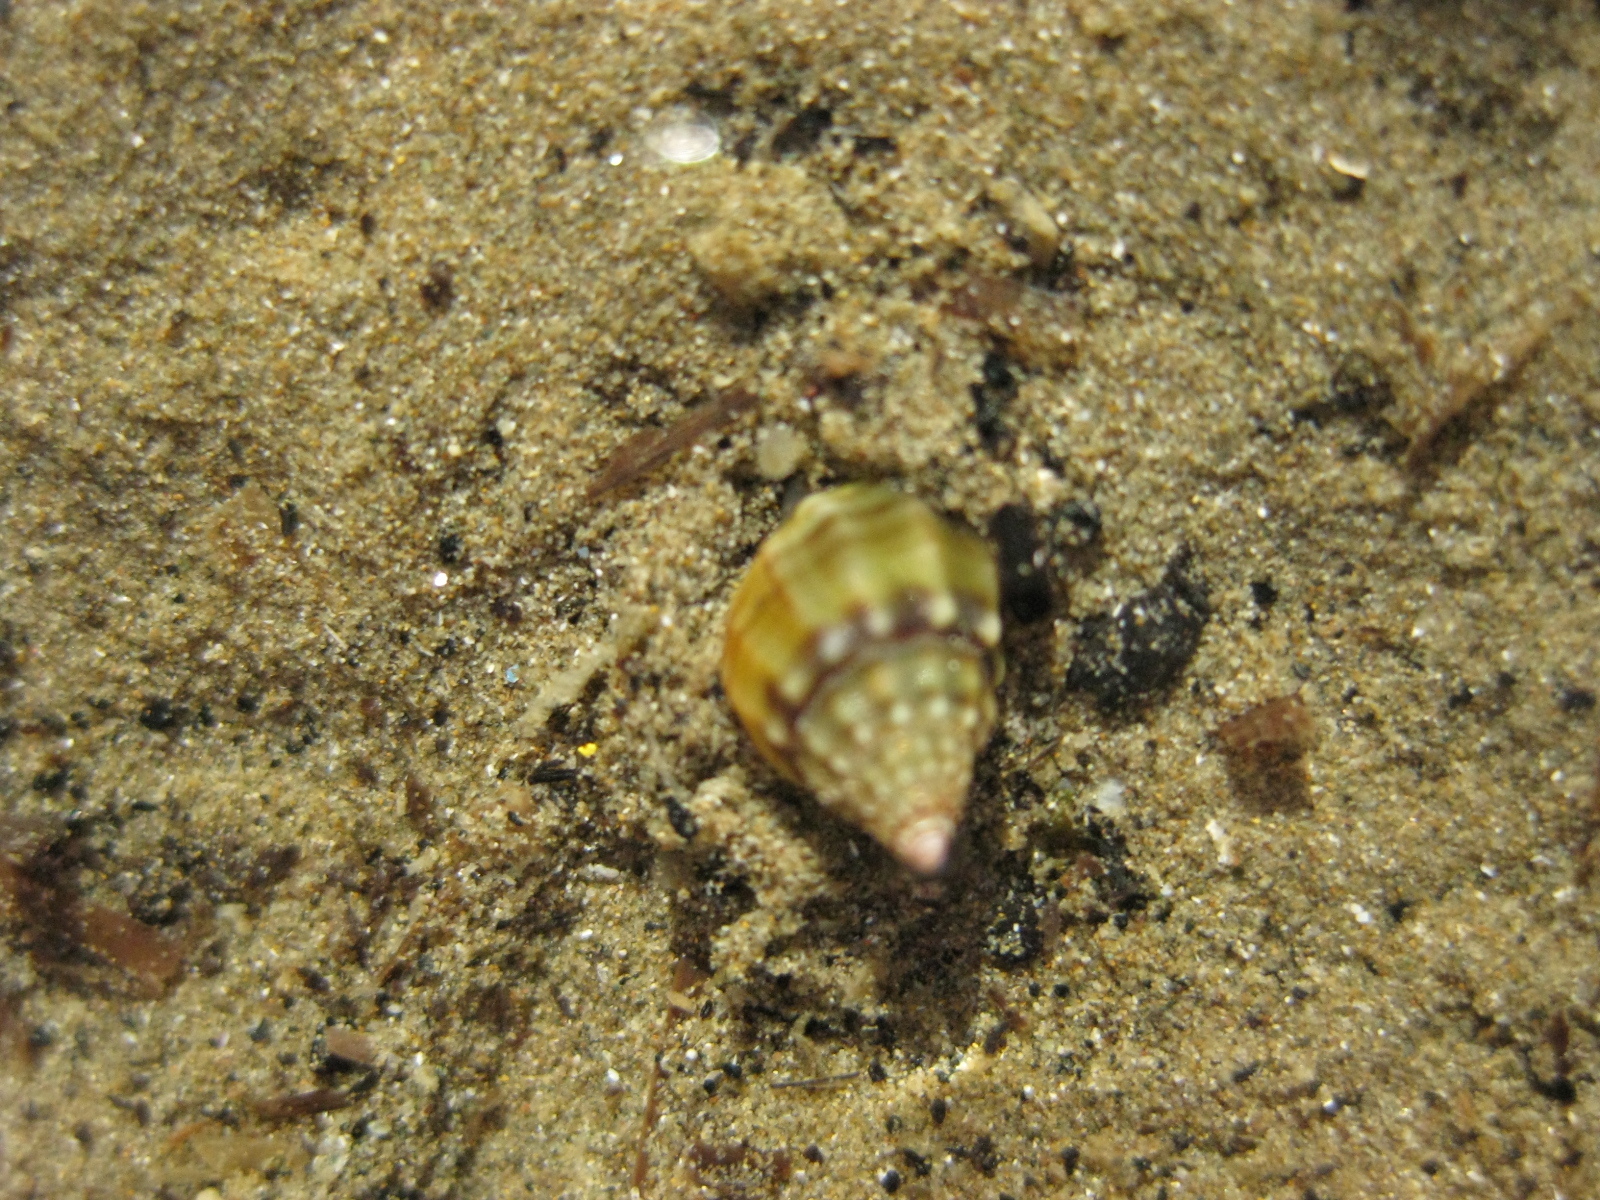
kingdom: Animalia
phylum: Mollusca
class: Gastropoda
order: Neogastropoda
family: Nassariidae
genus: Tritia
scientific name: Tritia burchardi
